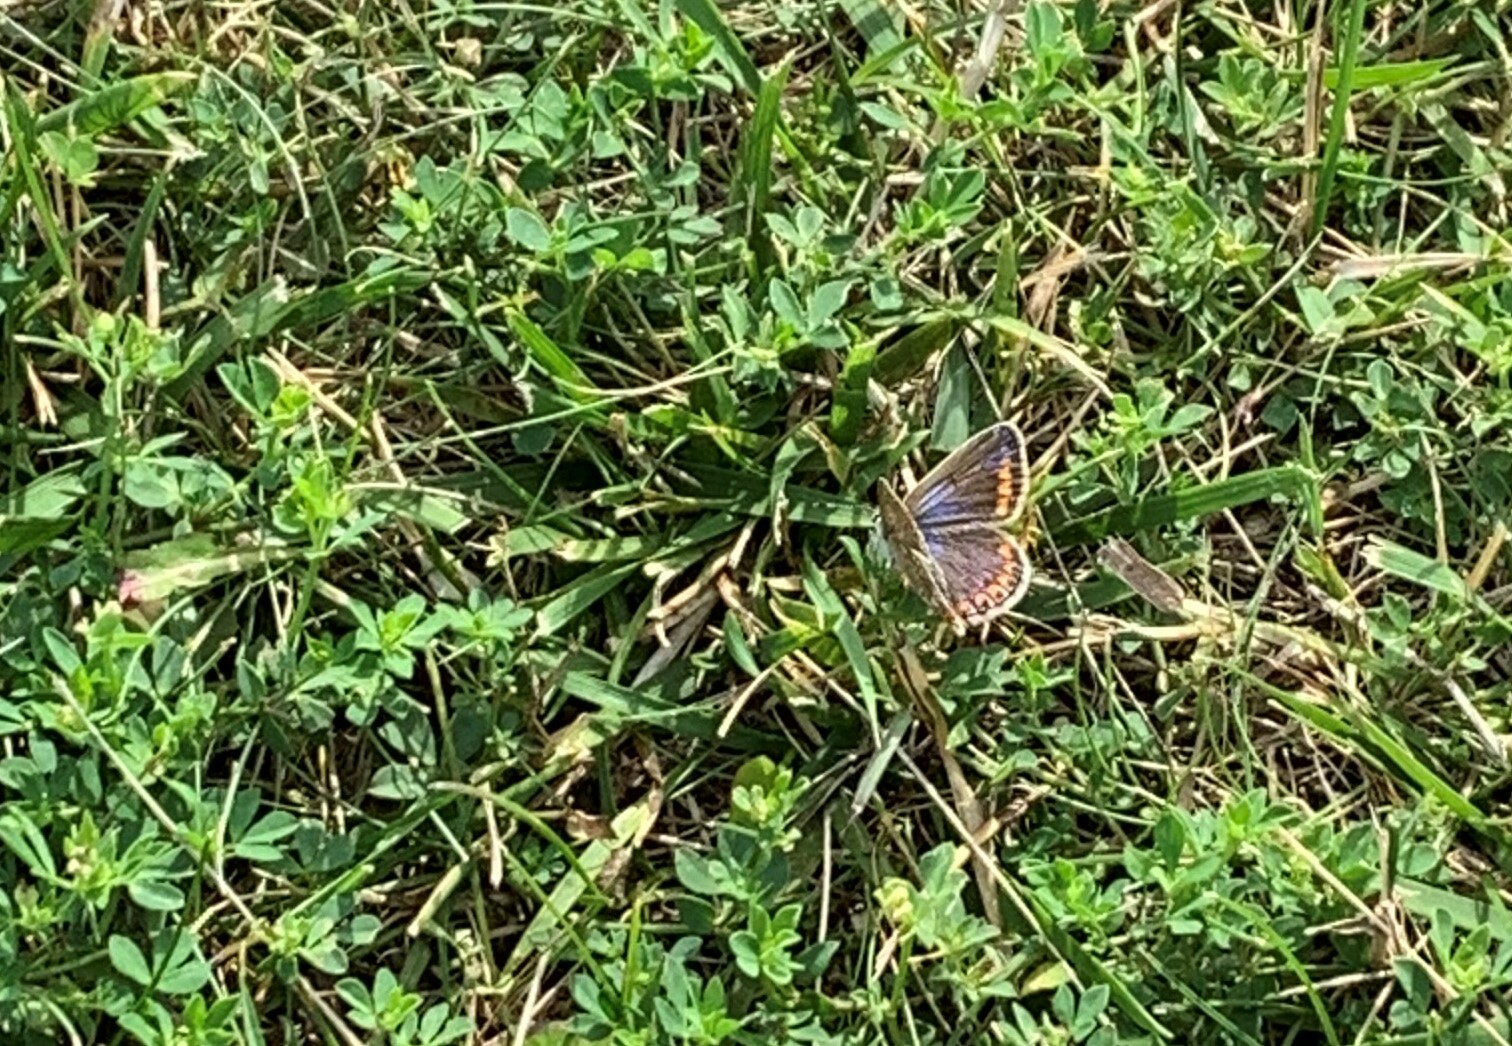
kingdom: Animalia
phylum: Arthropoda
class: Insecta
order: Lepidoptera
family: Lycaenidae
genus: Polyommatus
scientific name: Polyommatus icarus
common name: Common blue
